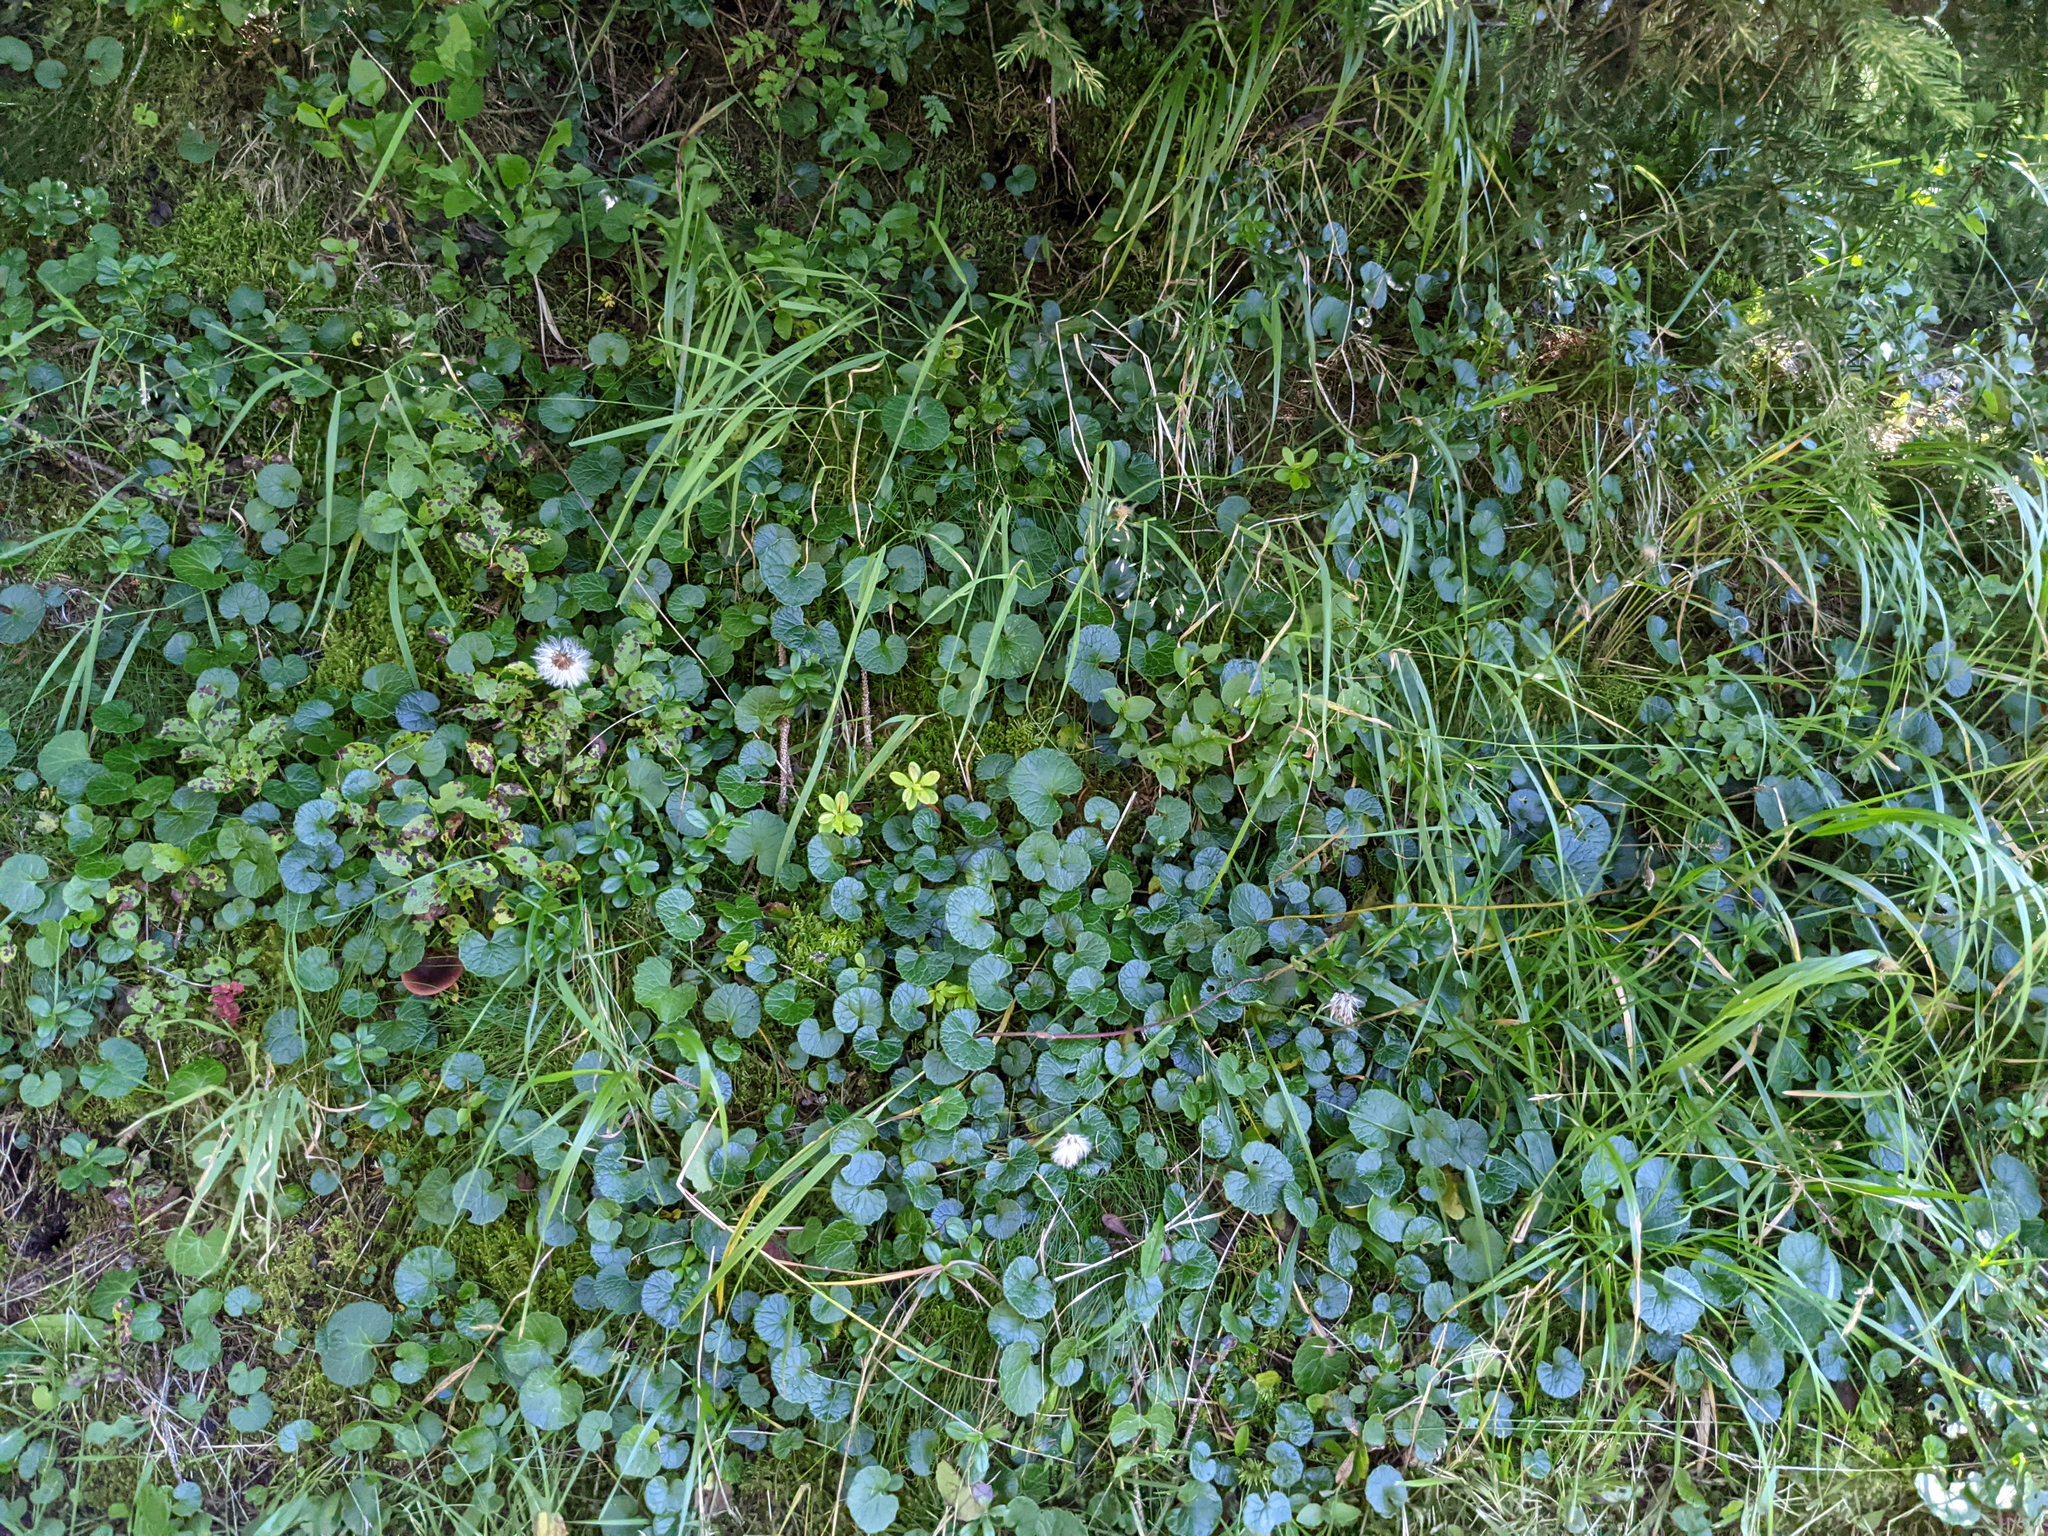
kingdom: Plantae
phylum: Tracheophyta
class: Magnoliopsida
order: Asterales
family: Asteraceae
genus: Homogyne
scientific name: Homogyne alpina
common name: Purple colt's-foot
